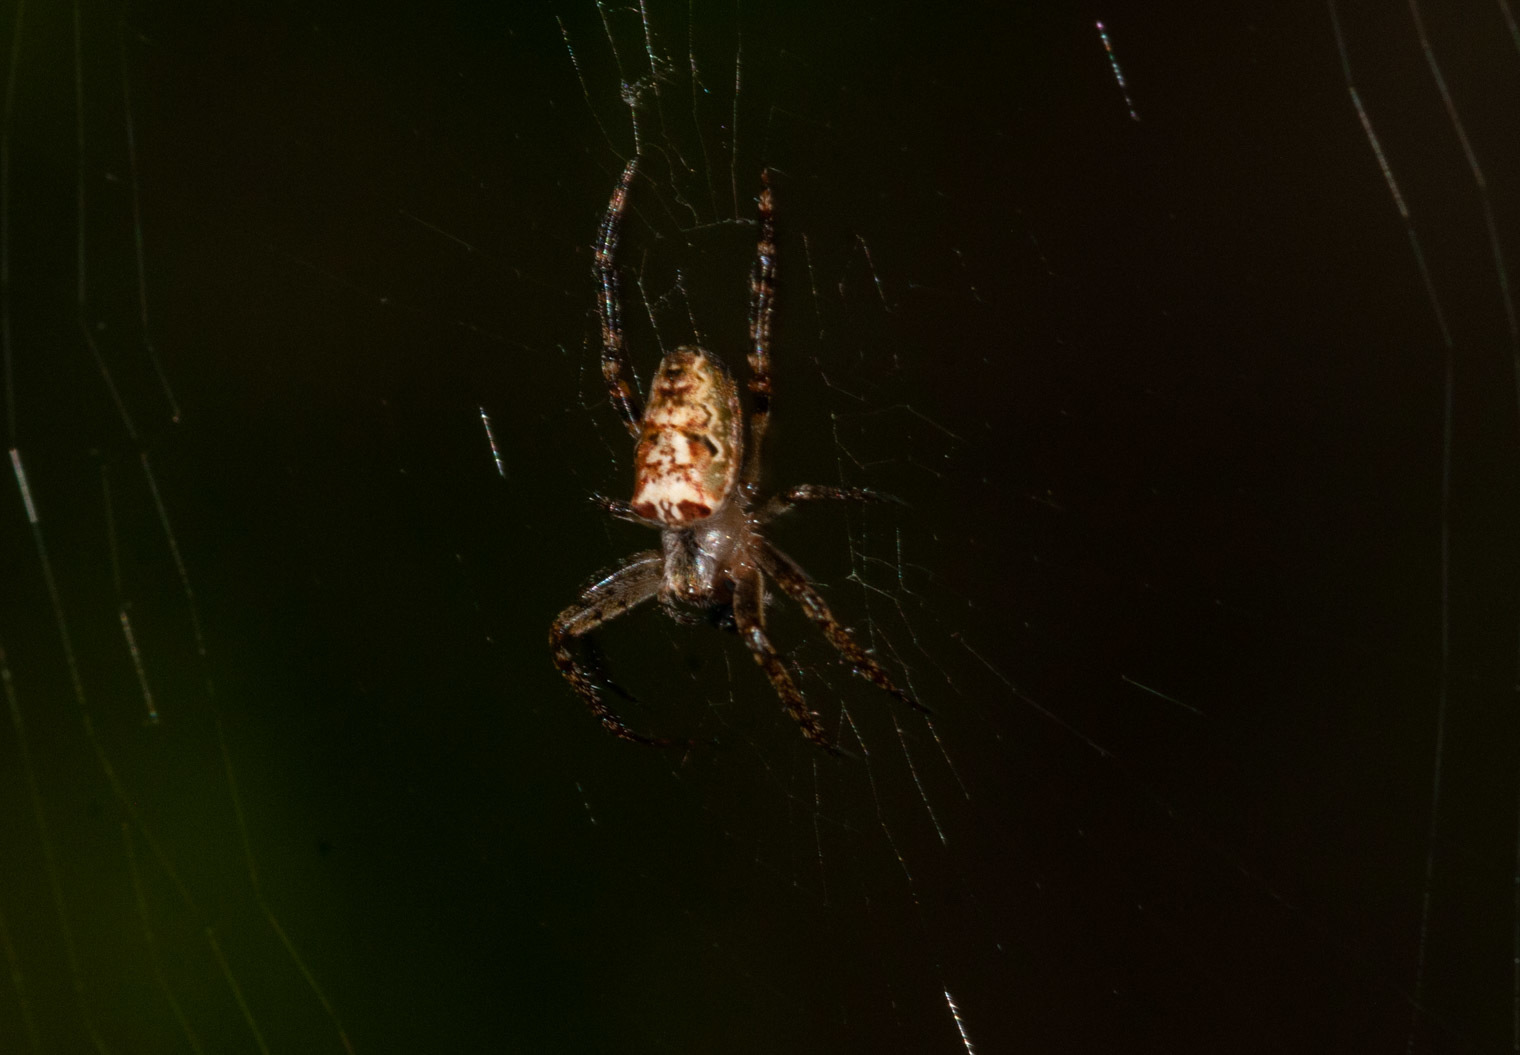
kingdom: Animalia
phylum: Arthropoda
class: Arachnida
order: Araneae
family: Araneidae
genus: Plebs
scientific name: Plebs eburnus
